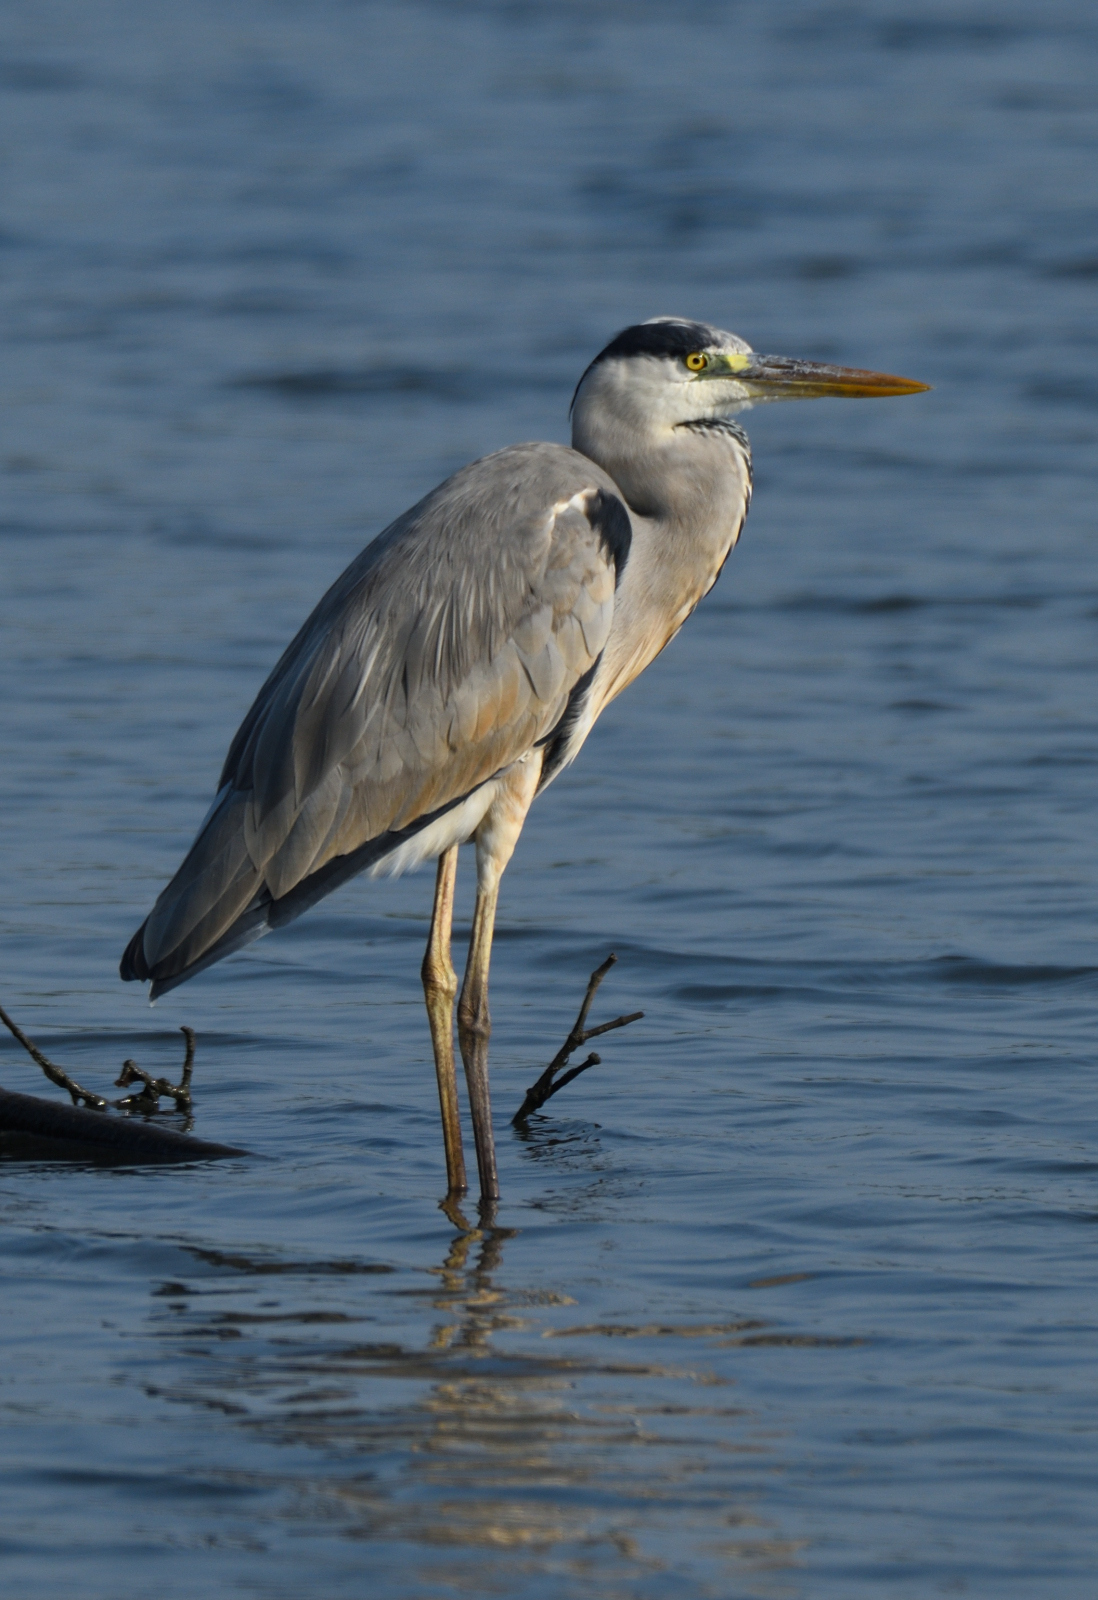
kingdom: Animalia
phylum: Chordata
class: Aves
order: Pelecaniformes
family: Ardeidae
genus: Ardea
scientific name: Ardea cinerea
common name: Grey heron
